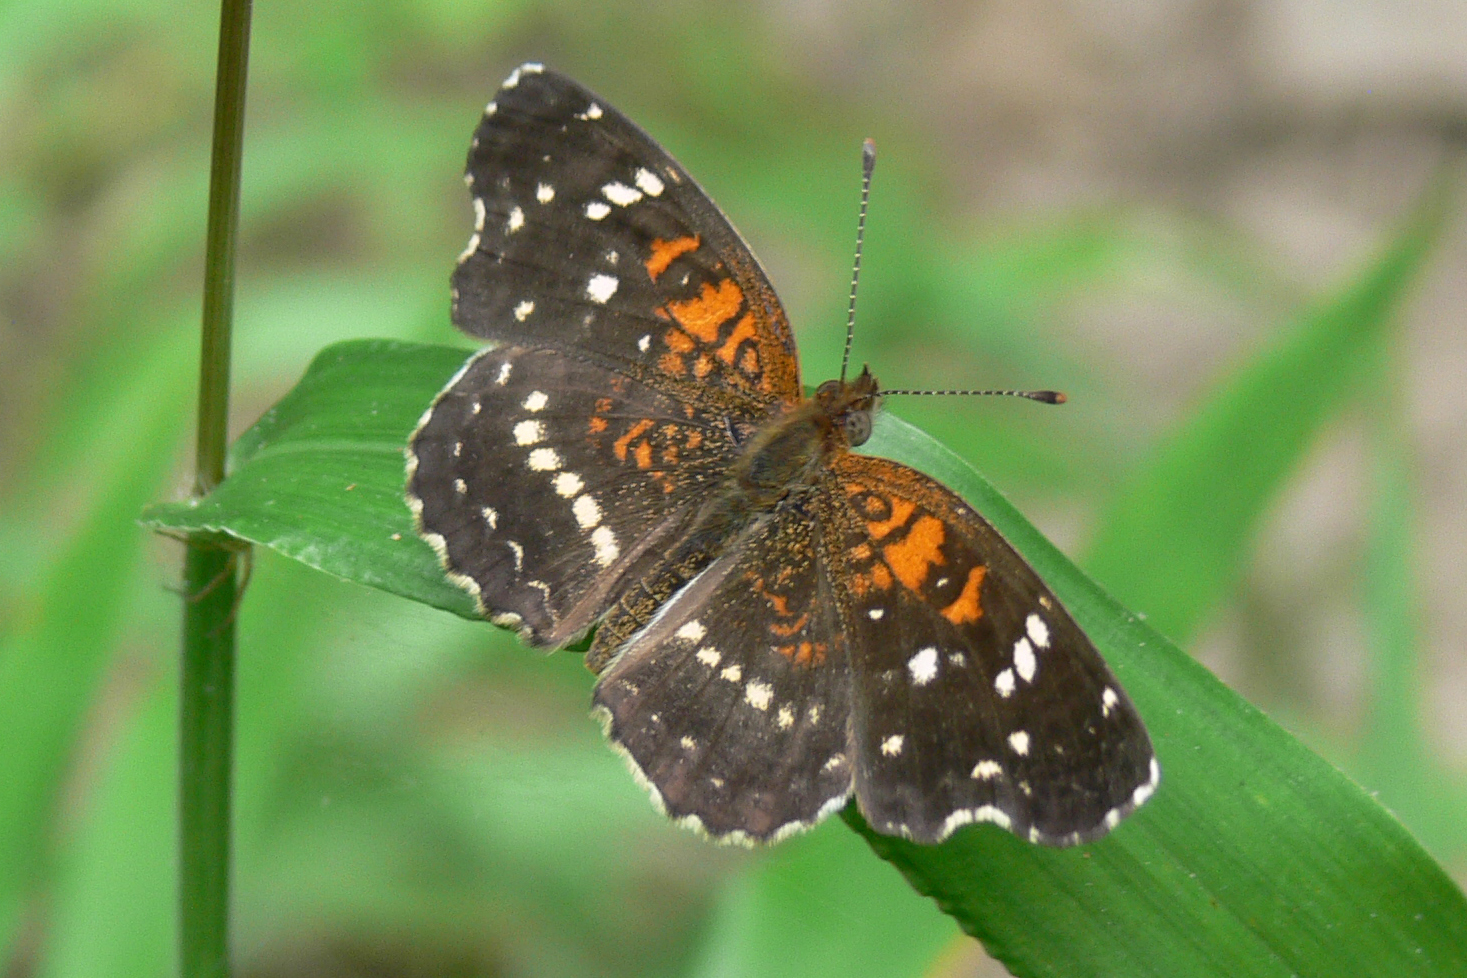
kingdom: Animalia
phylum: Arthropoda
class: Insecta
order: Lepidoptera
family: Nymphalidae
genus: Anthanassa
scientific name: Anthanassa texana
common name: Texan crescent
